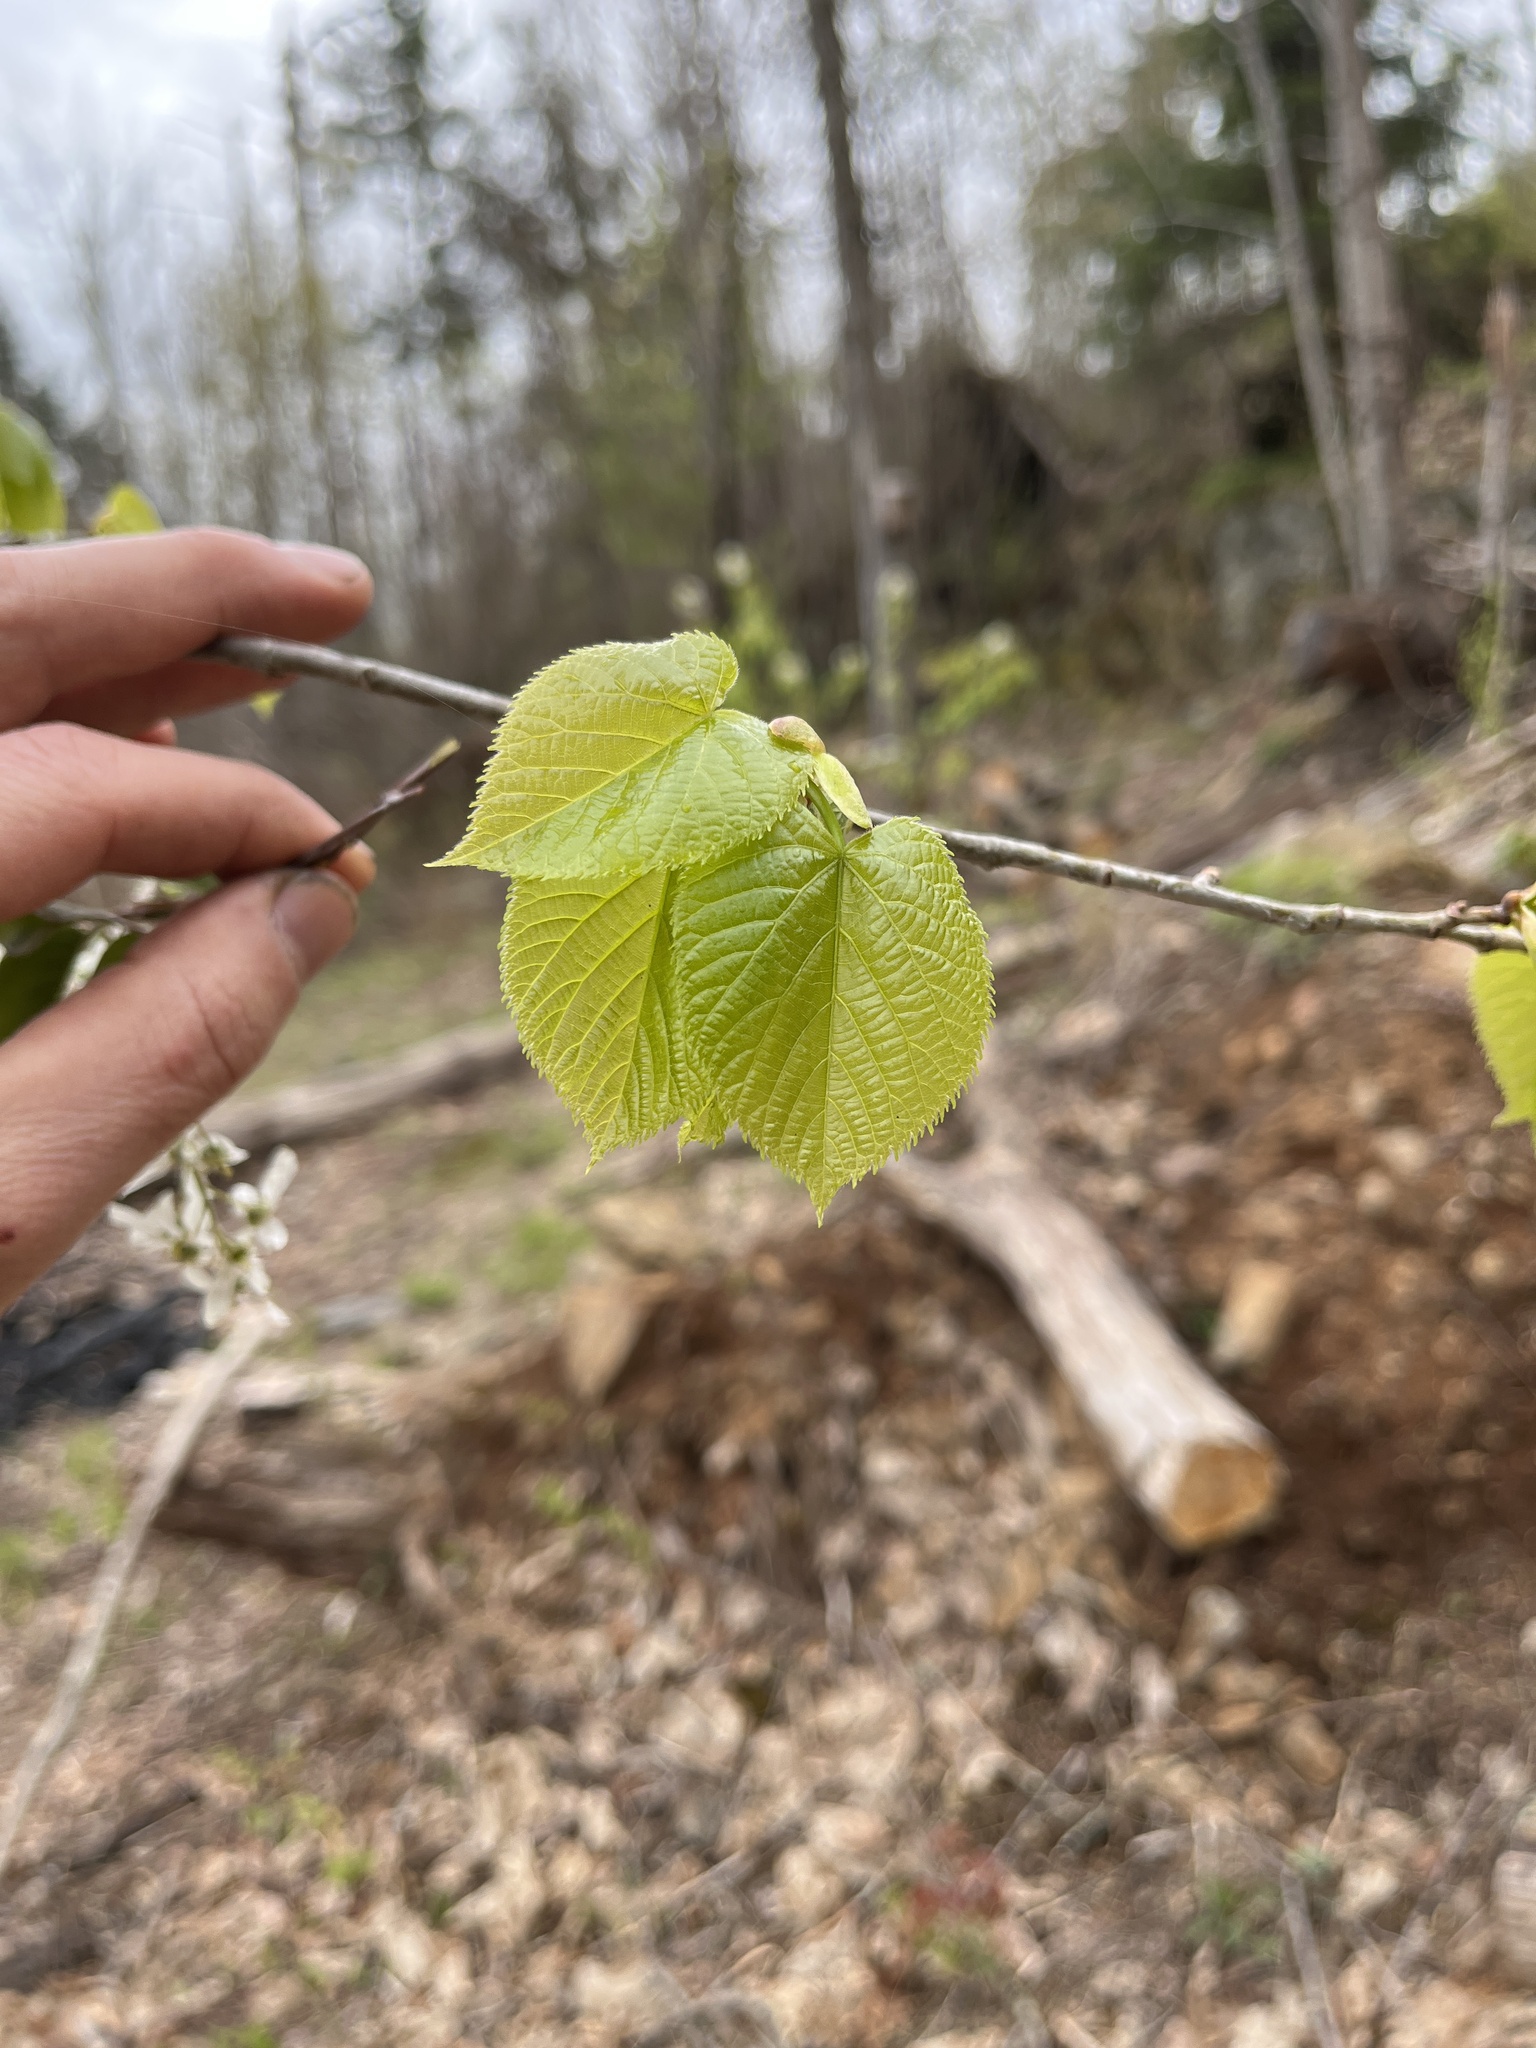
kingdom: Plantae
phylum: Tracheophyta
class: Magnoliopsida
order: Malvales
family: Malvaceae
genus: Tilia
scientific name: Tilia americana
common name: Basswood
